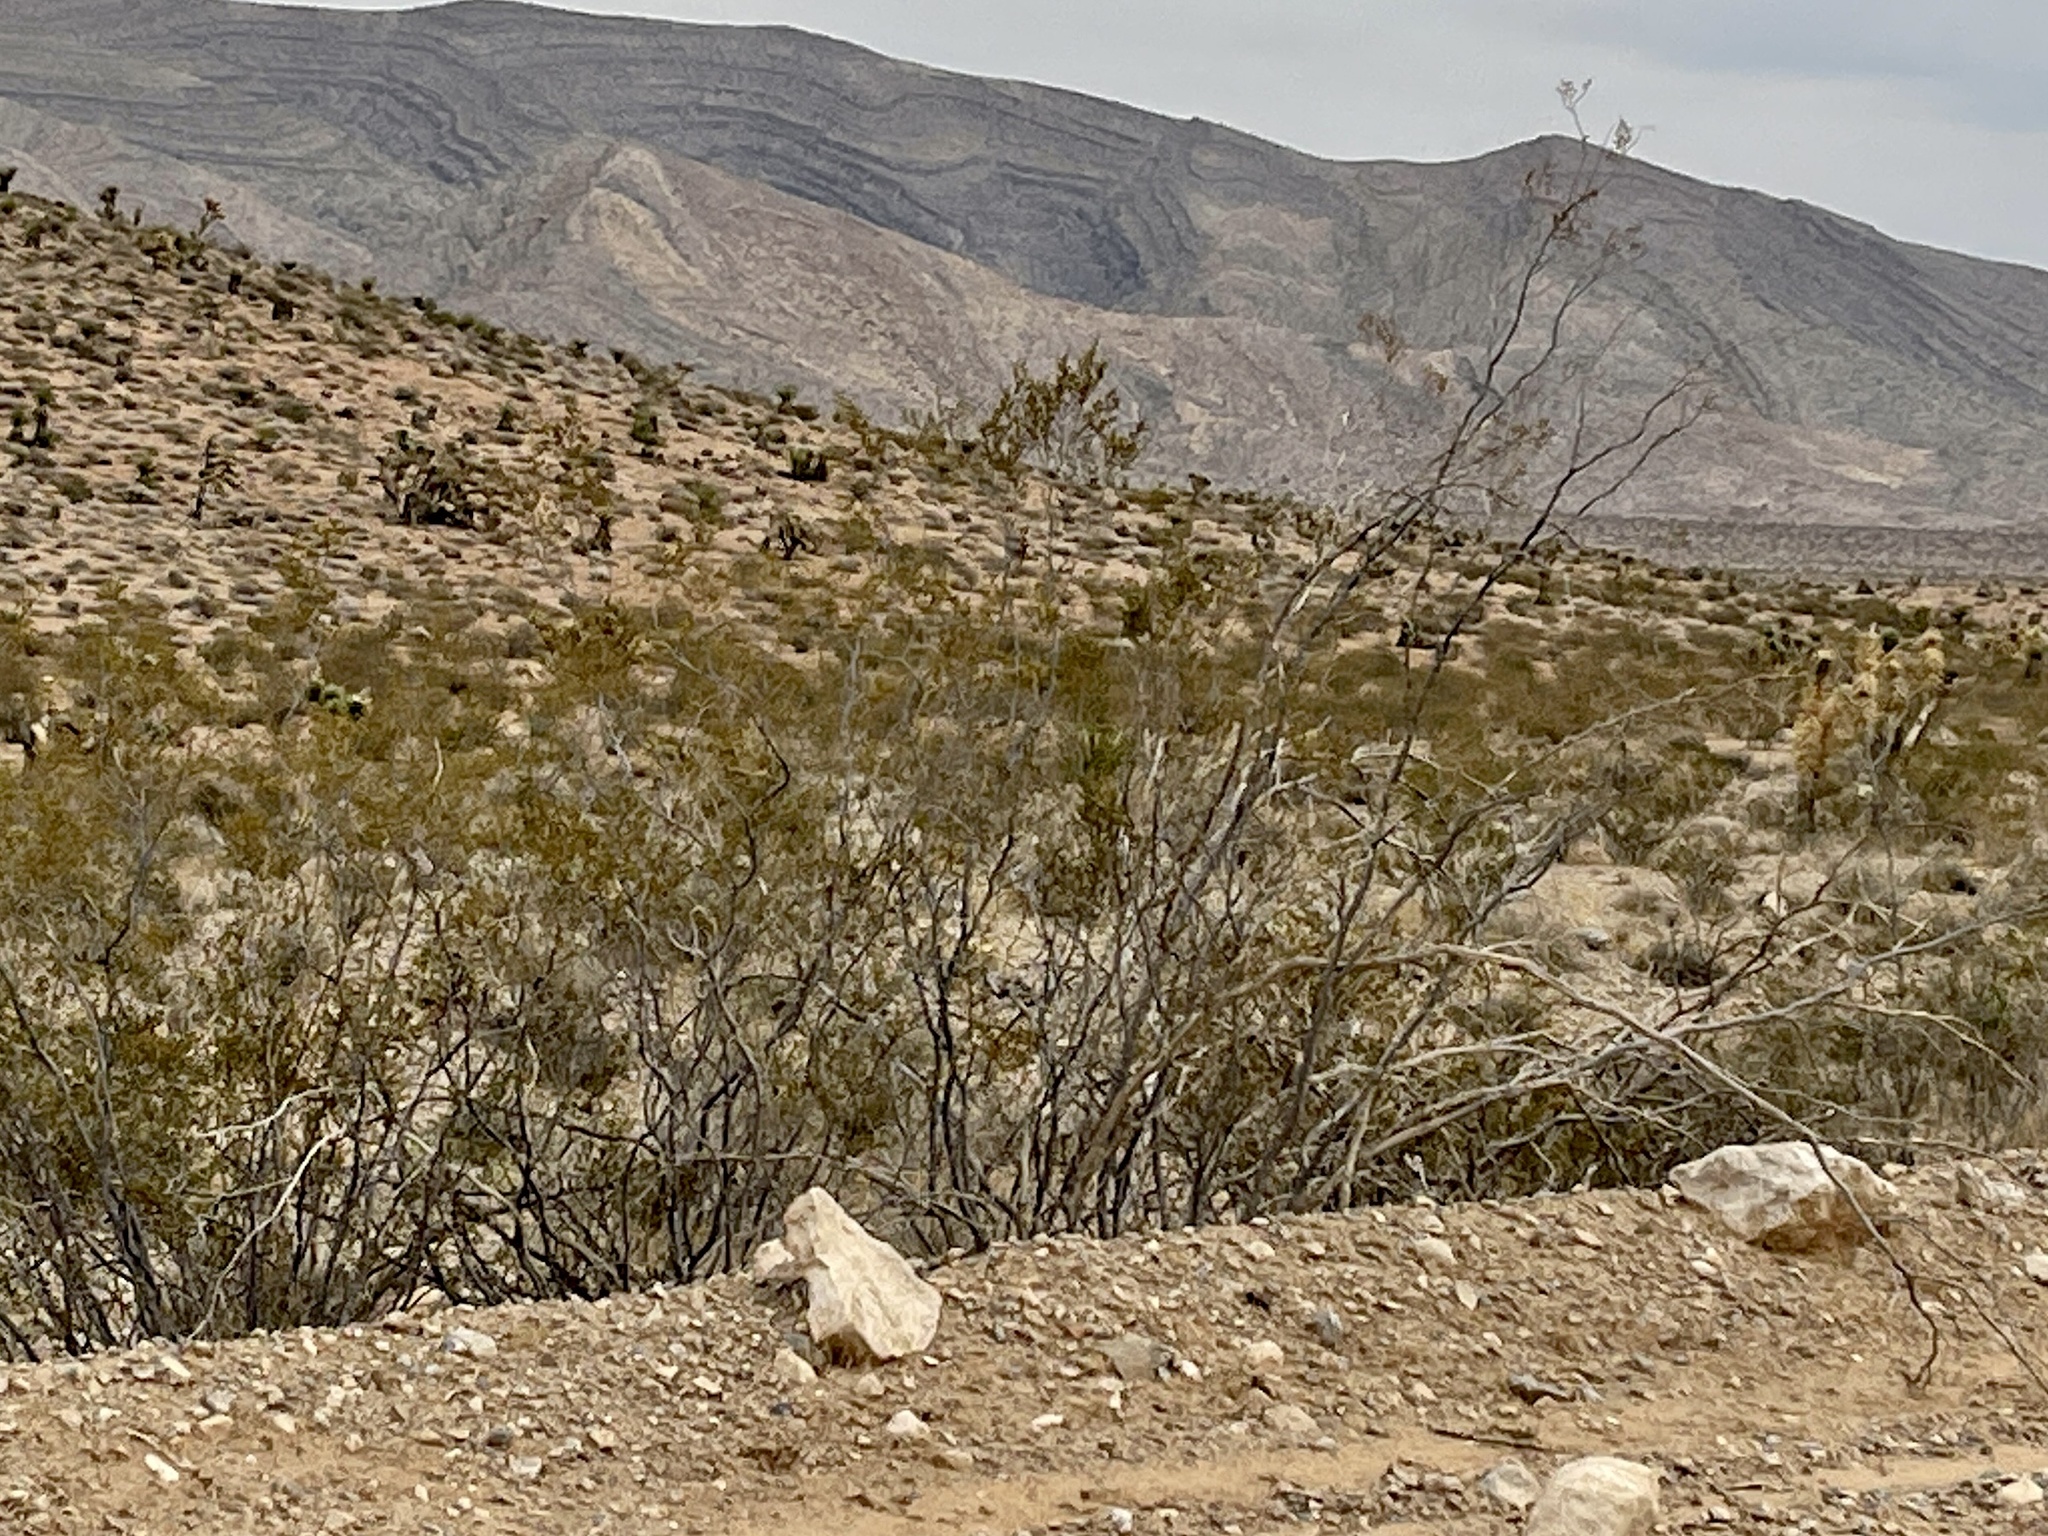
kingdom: Plantae
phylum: Tracheophyta
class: Magnoliopsida
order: Zygophyllales
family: Zygophyllaceae
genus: Larrea
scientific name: Larrea tridentata
